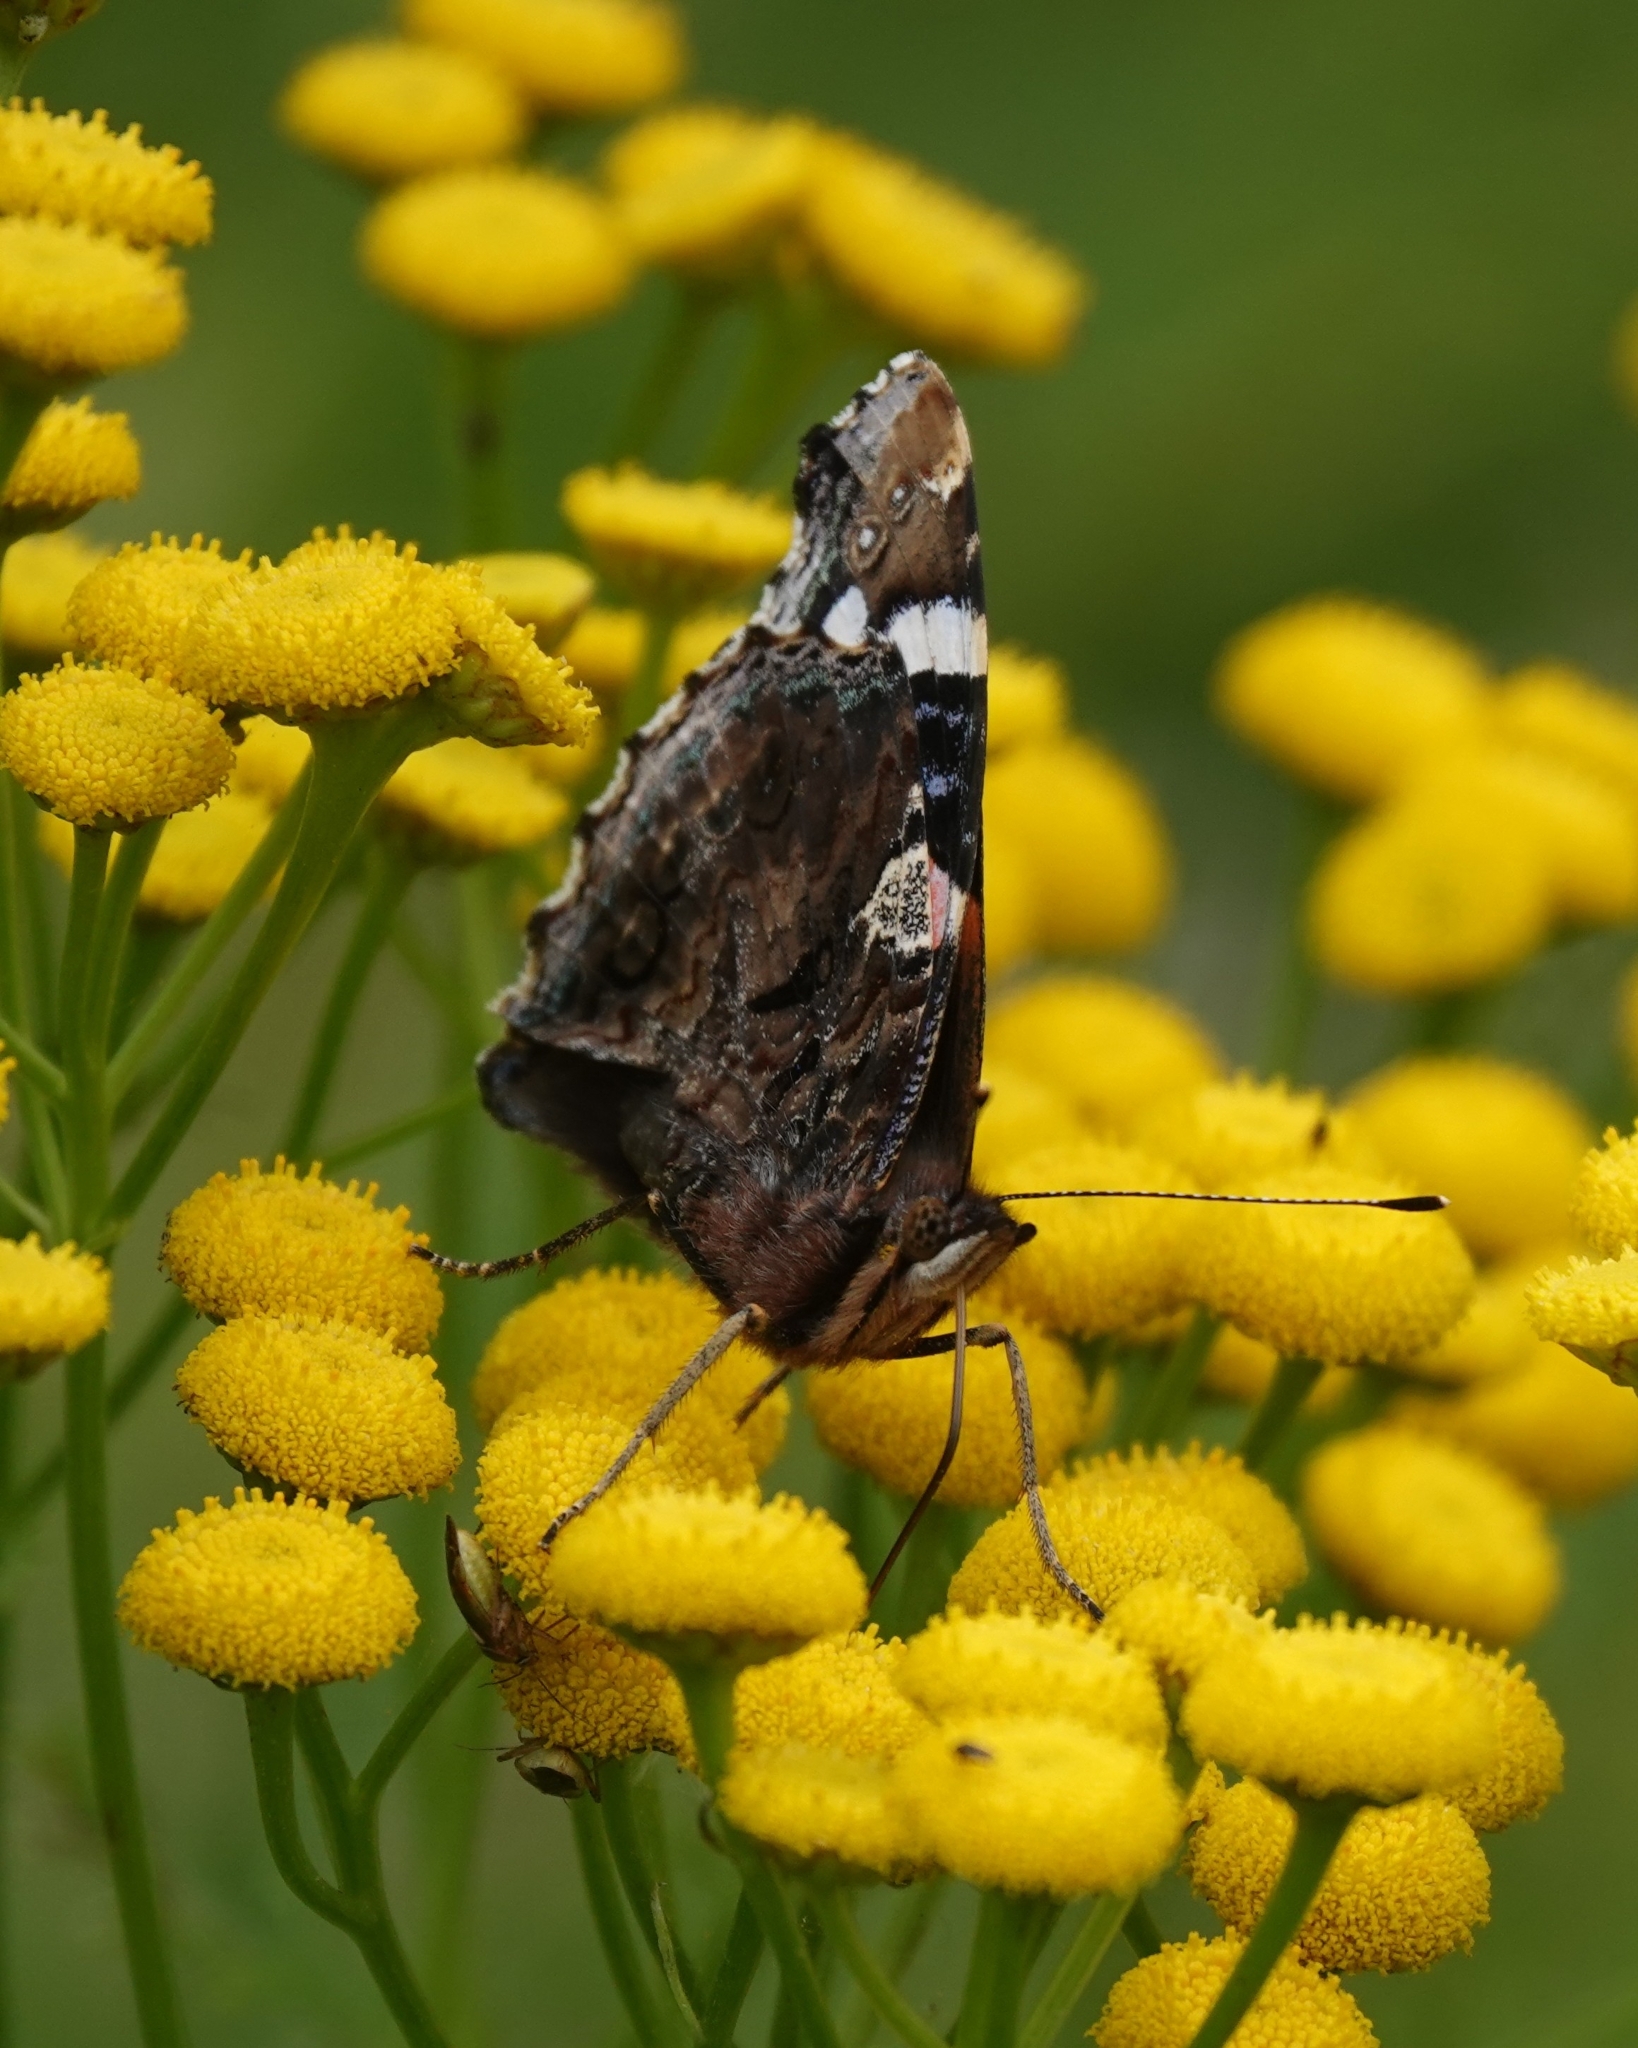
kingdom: Animalia
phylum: Arthropoda
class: Insecta
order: Lepidoptera
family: Nymphalidae
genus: Vanessa
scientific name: Vanessa atalanta
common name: Red admiral
